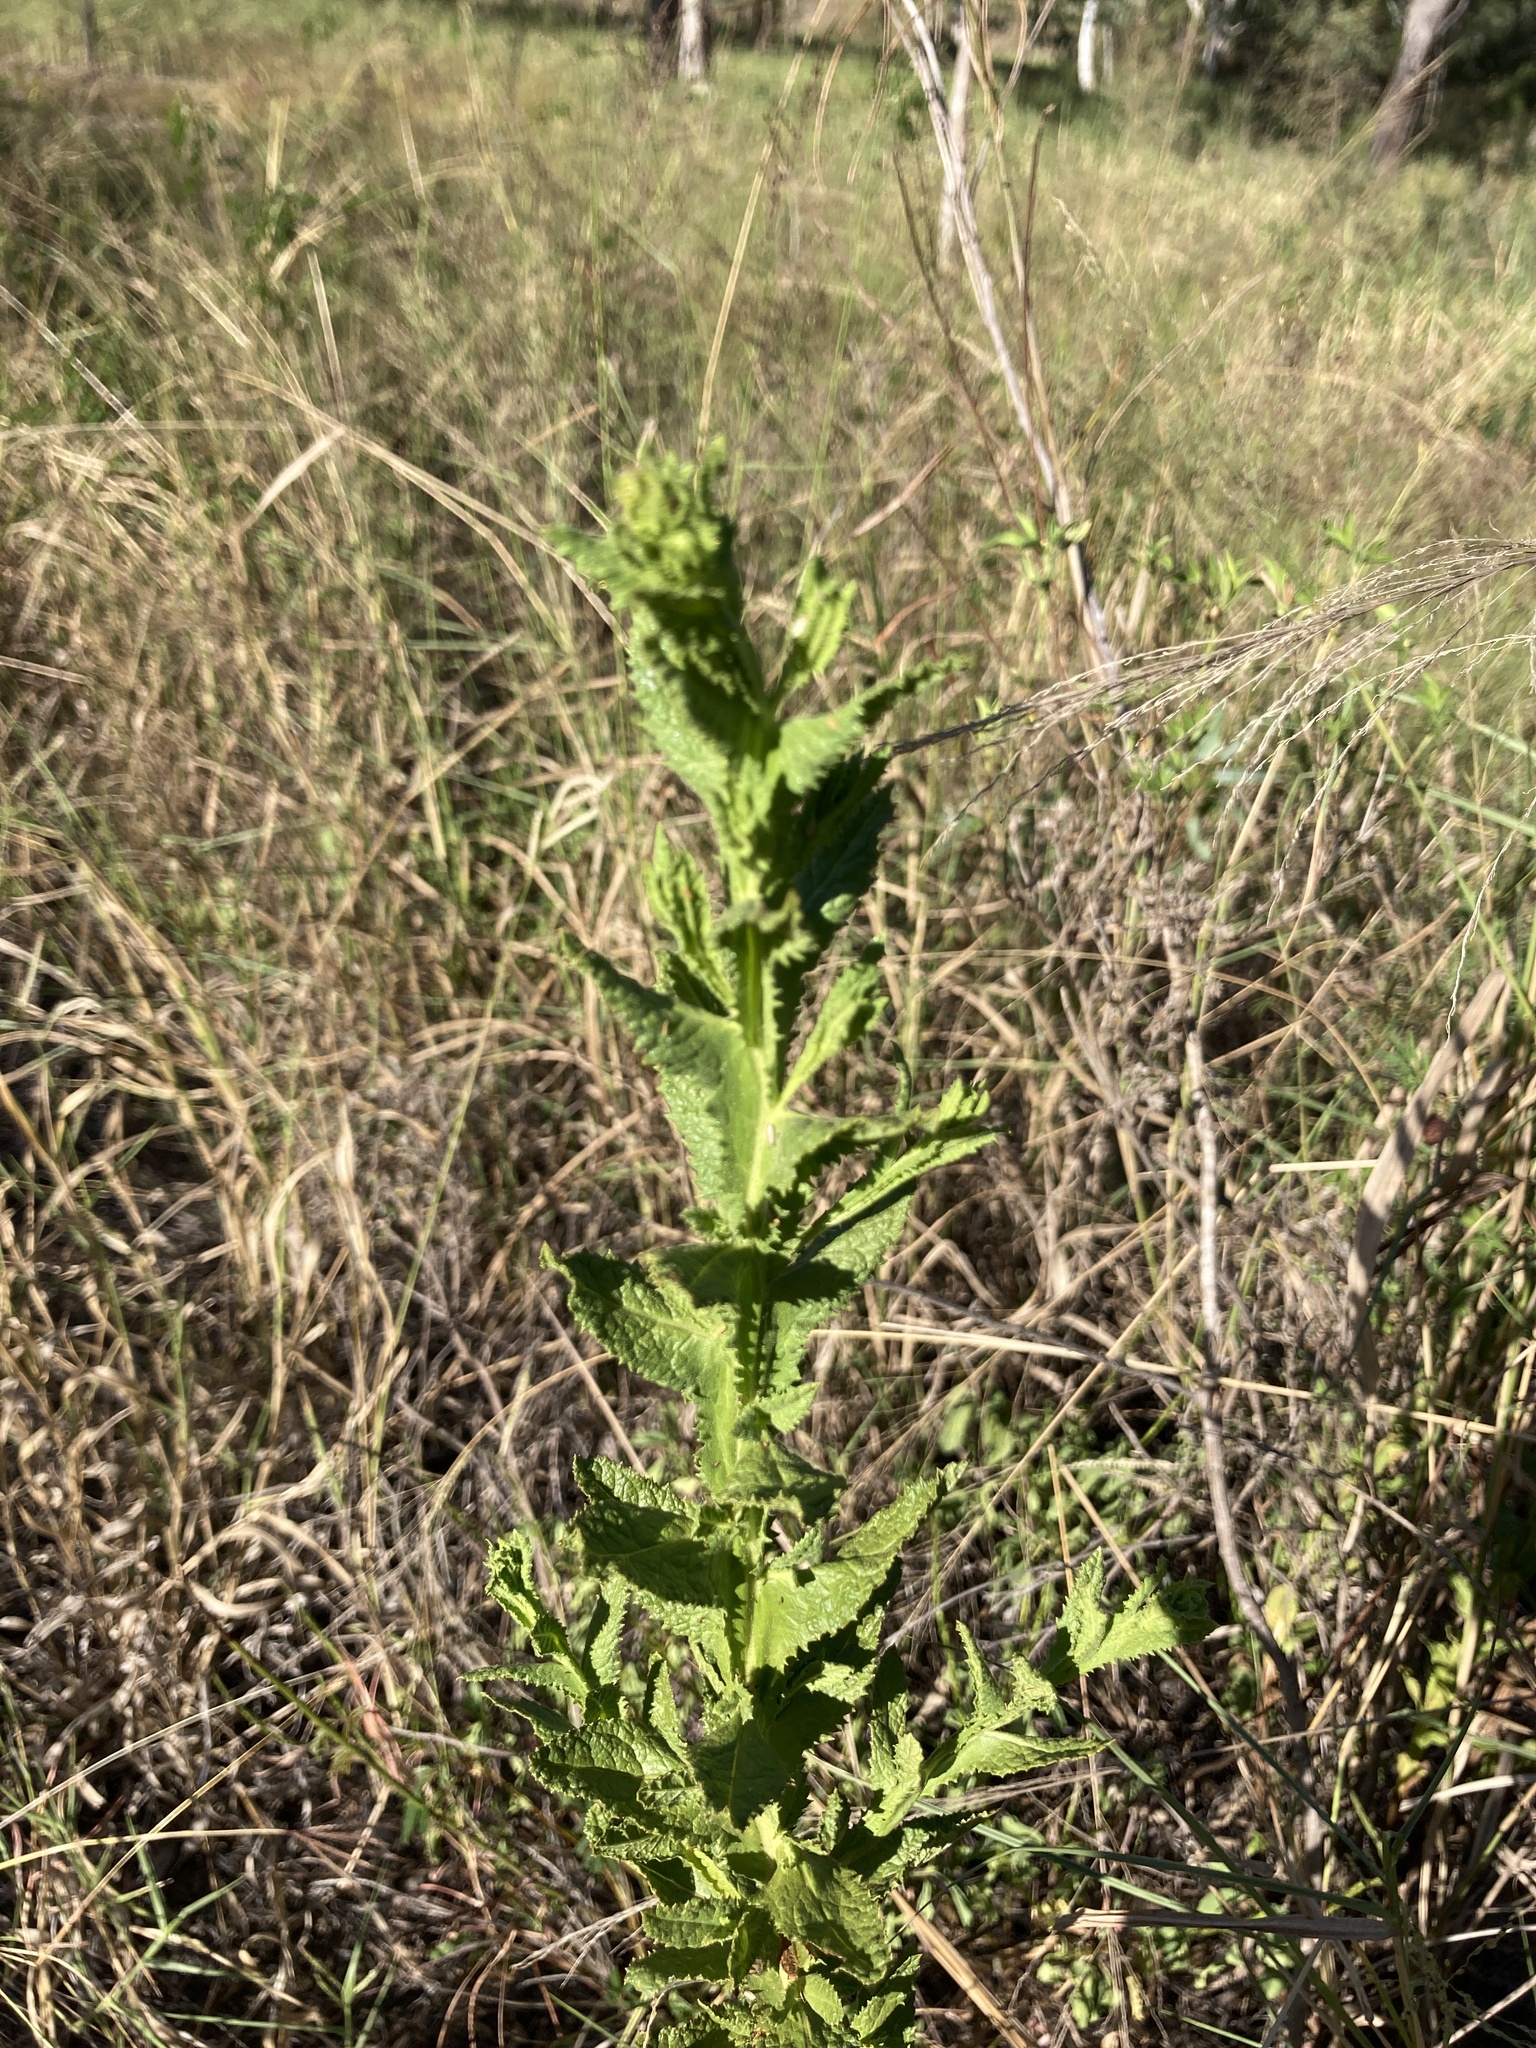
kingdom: Plantae
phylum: Tracheophyta
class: Magnoliopsida
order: Asterales
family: Asteraceae
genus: Pterocaulon
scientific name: Pterocaulon serrulatum
